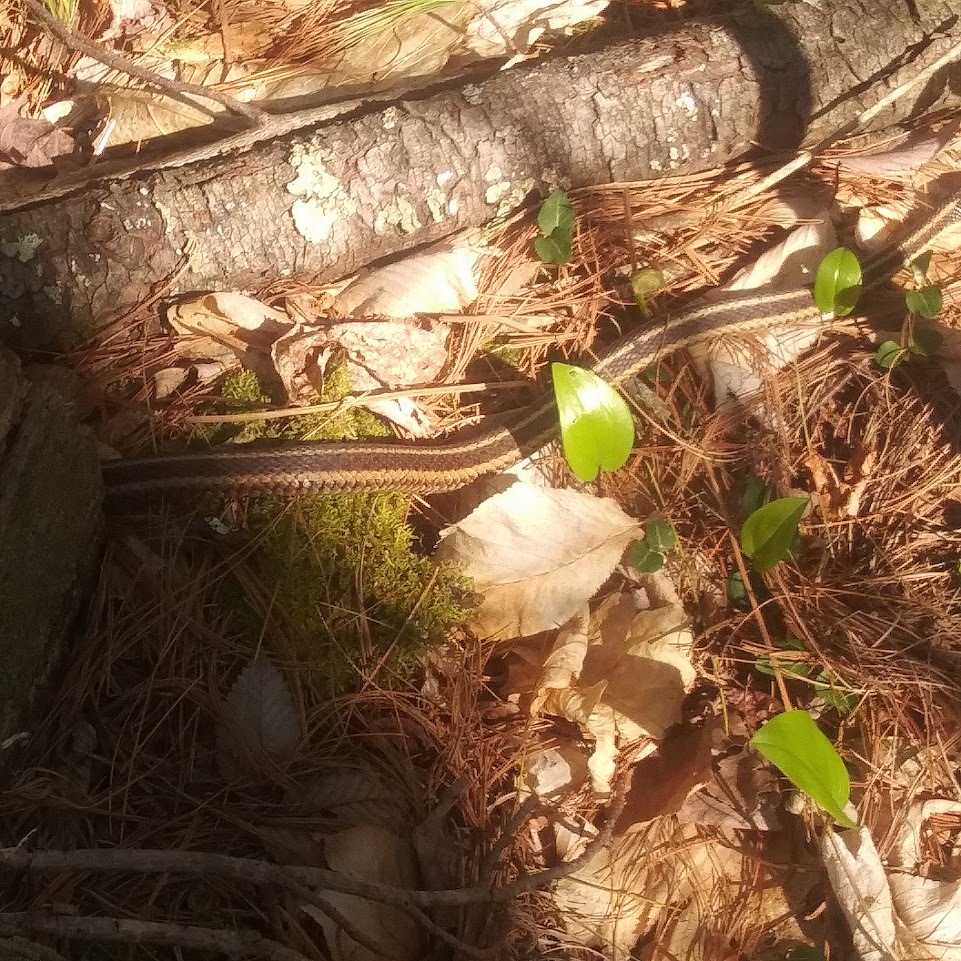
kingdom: Plantae
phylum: Tracheophyta
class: Liliopsida
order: Asparagales
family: Asparagaceae
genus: Maianthemum
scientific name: Maianthemum canadense
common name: False lily-of-the-valley
